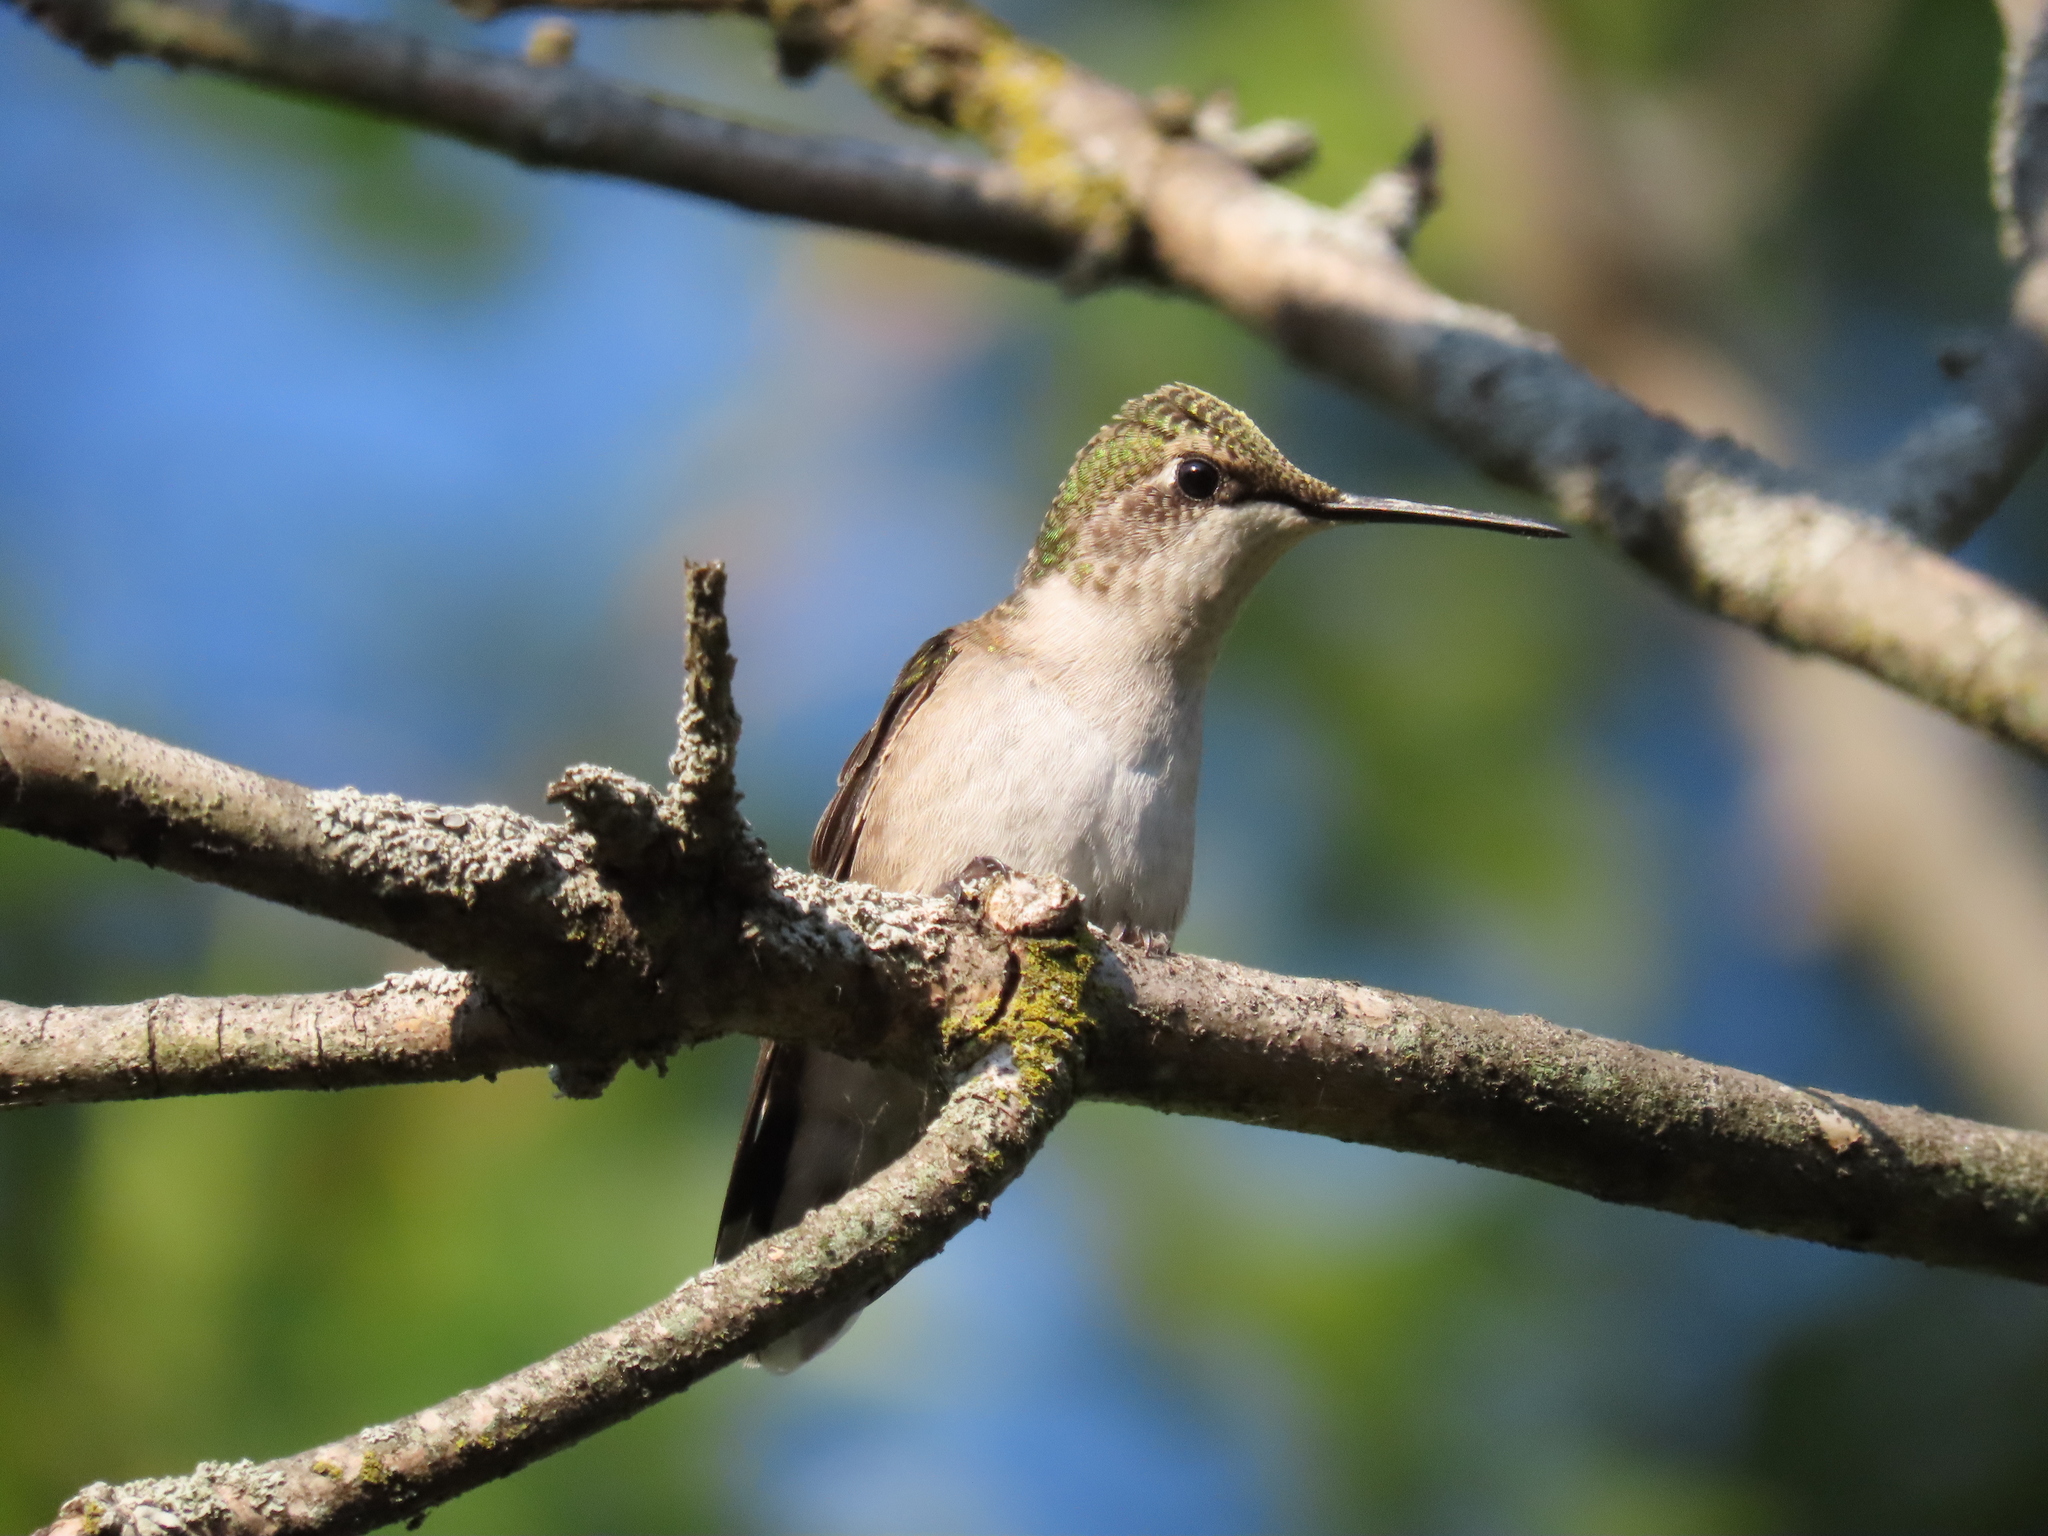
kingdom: Animalia
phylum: Chordata
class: Aves
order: Apodiformes
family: Trochilidae
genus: Archilochus
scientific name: Archilochus colubris
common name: Ruby-throated hummingbird
